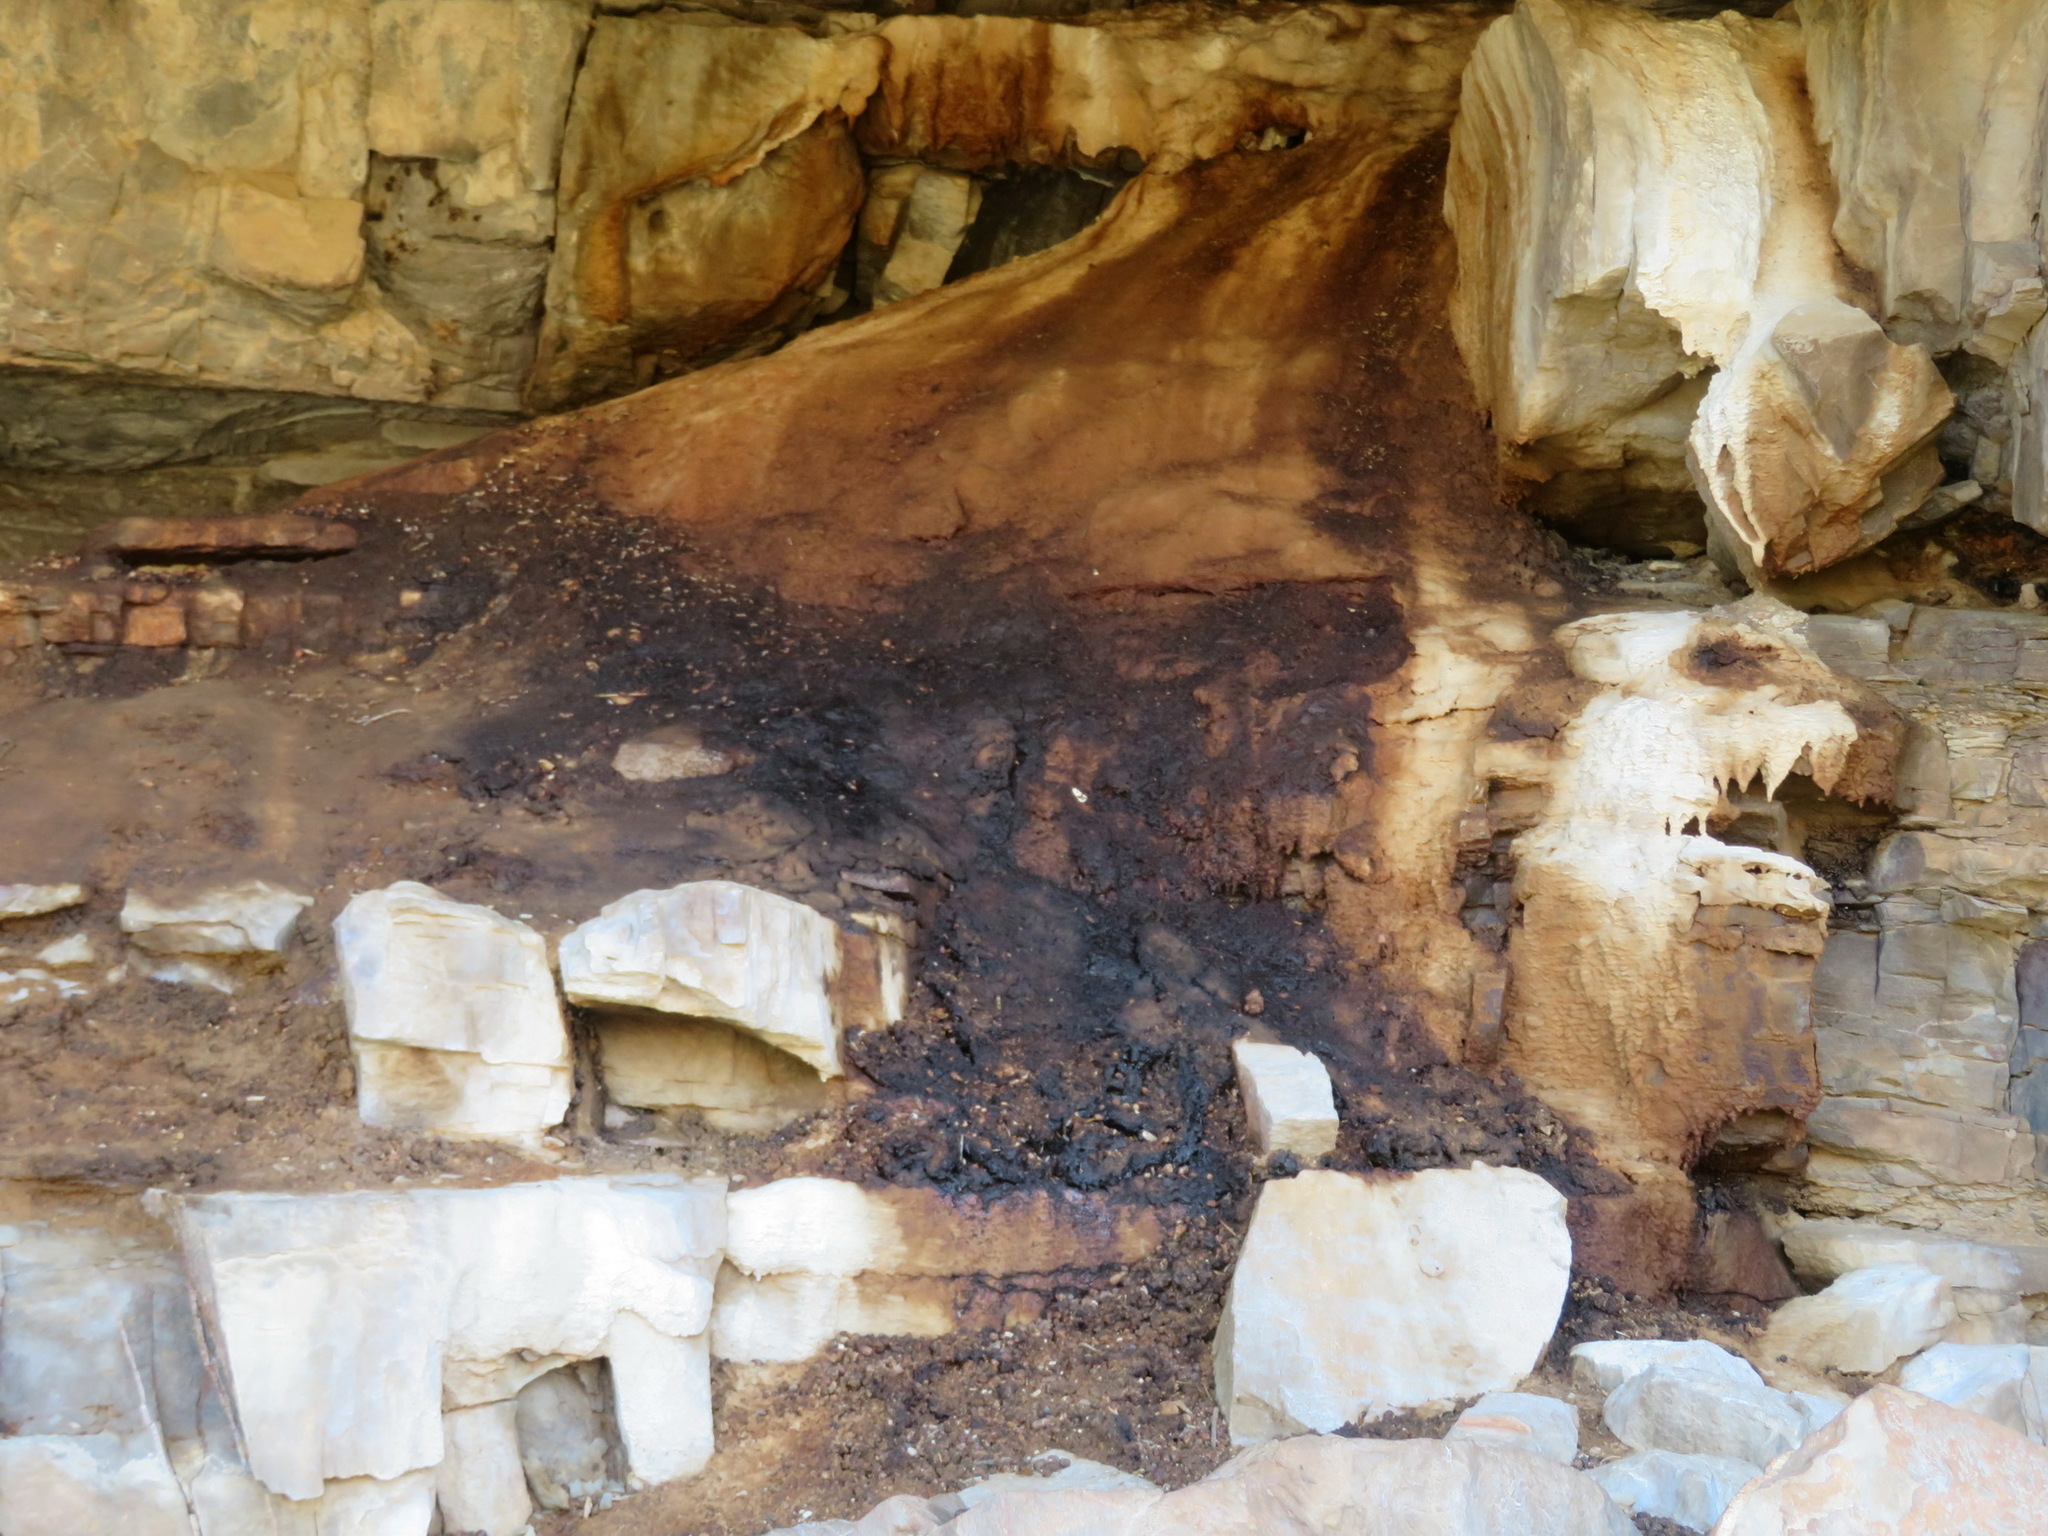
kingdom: Animalia
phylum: Chordata
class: Mammalia
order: Hyracoidea
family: Procaviidae
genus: Procavia
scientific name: Procavia capensis
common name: Rock hyrax
